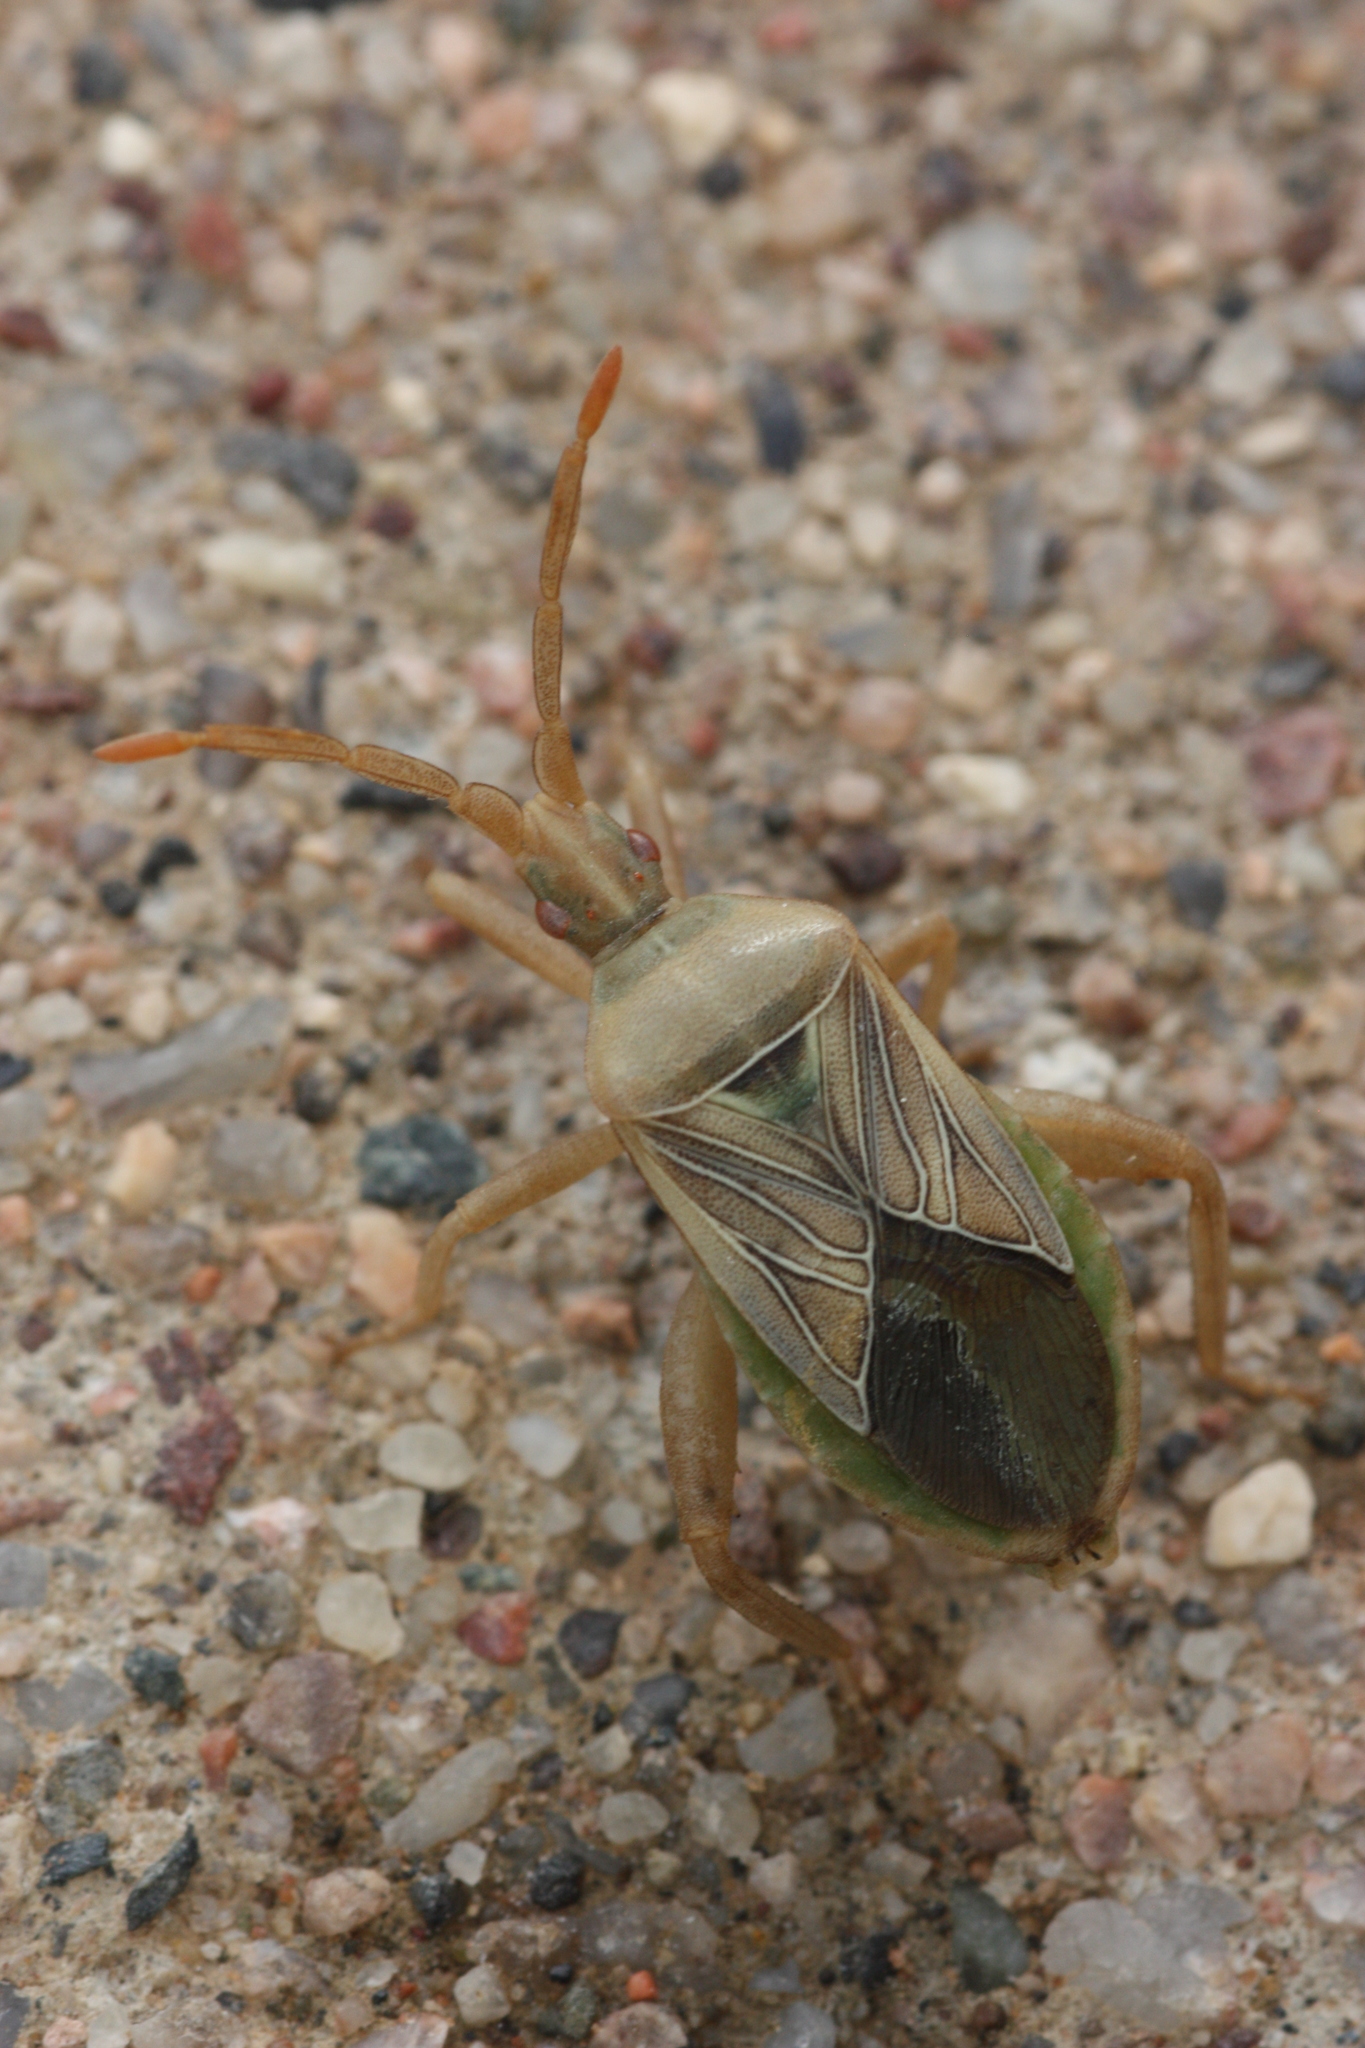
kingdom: Animalia
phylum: Arthropoda
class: Insecta
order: Hemiptera
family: Coreidae
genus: Chelinidea
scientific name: Chelinidea hunteri
